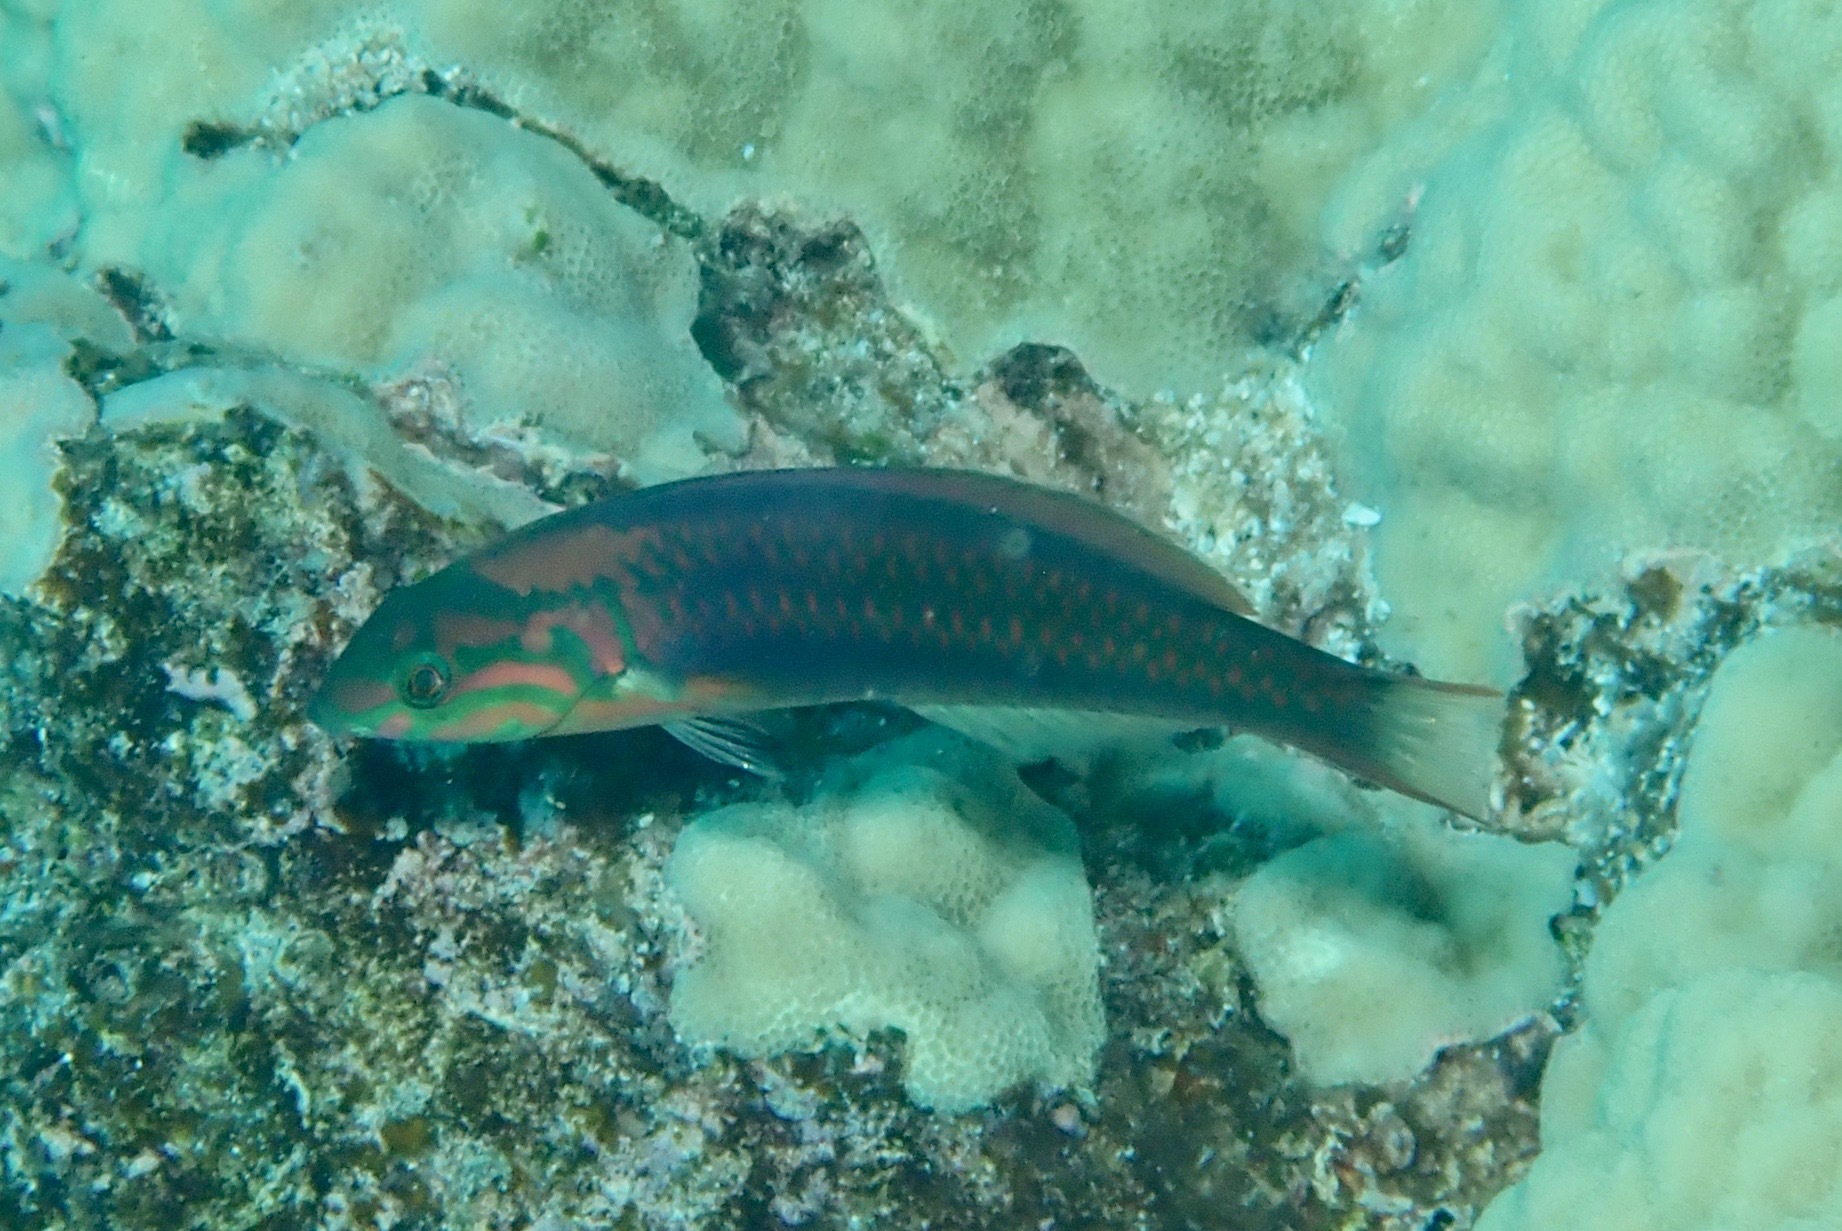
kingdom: Animalia
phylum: Chordata
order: Perciformes
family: Labridae
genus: Thalassoma
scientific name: Thalassoma quinquevittatum
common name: Five striped surge wrasse
